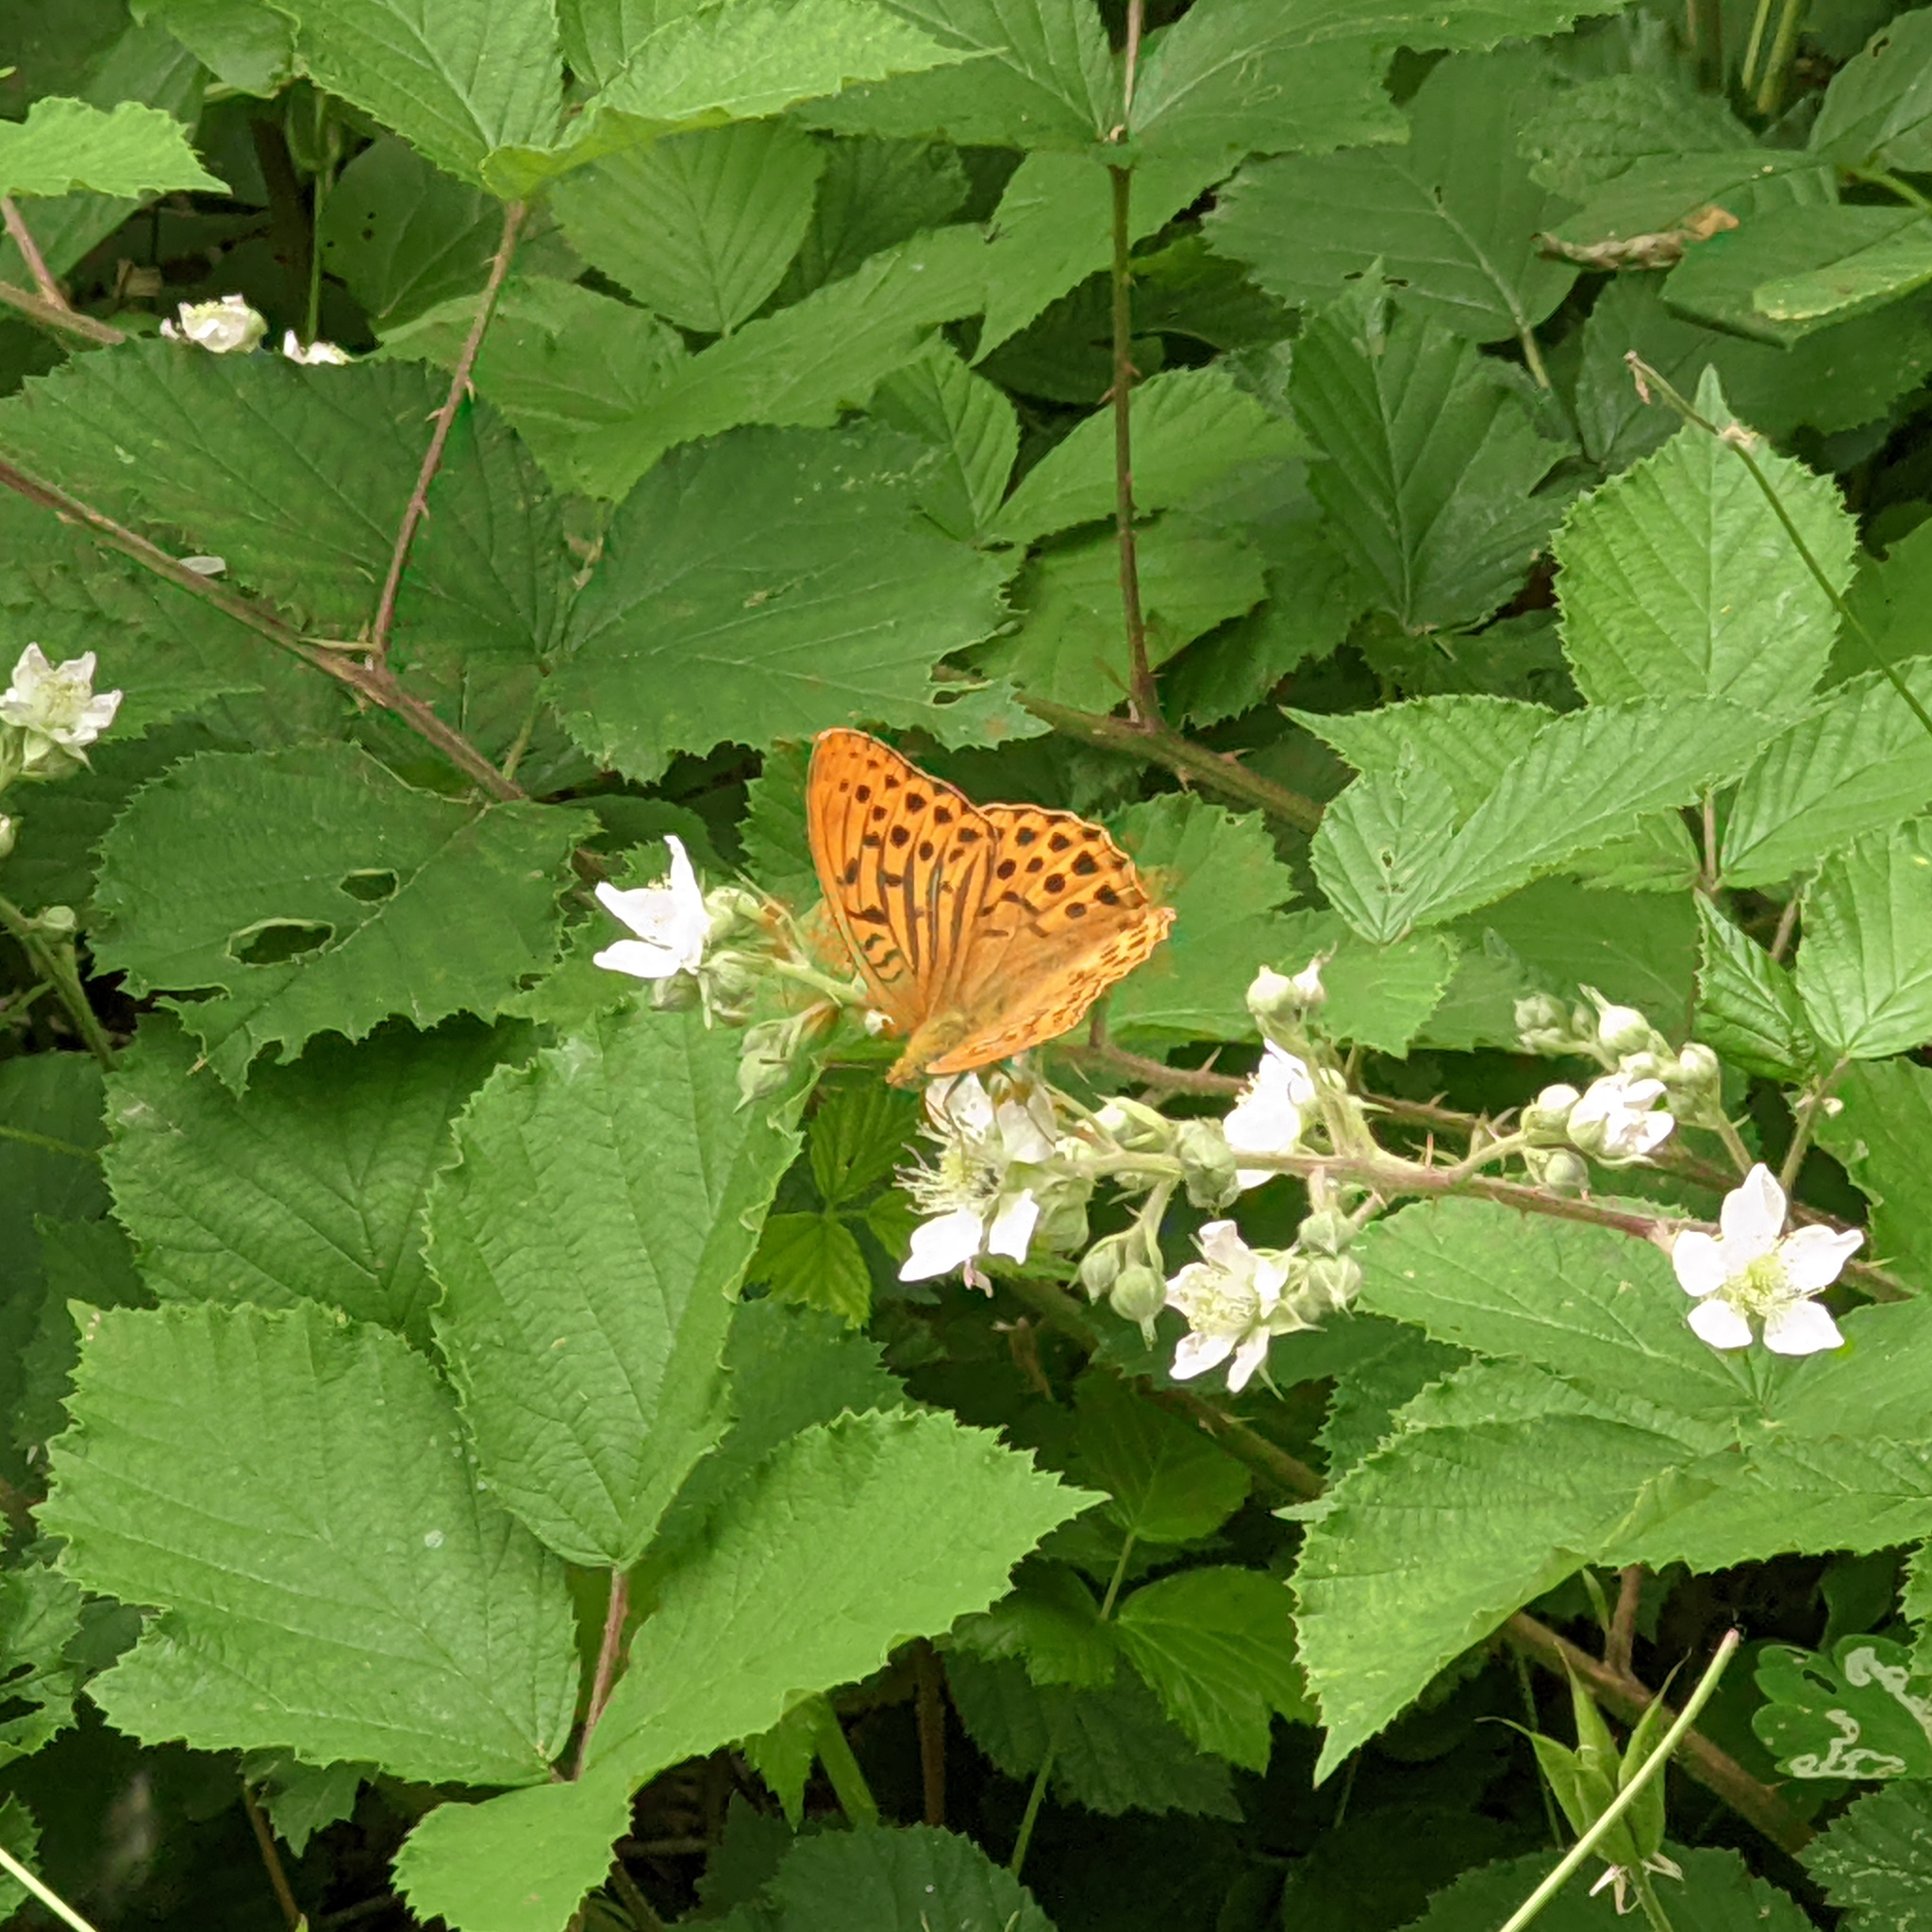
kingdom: Animalia
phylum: Arthropoda
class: Insecta
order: Lepidoptera
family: Nymphalidae
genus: Argynnis
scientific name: Argynnis paphia
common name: Silver-washed fritillary
